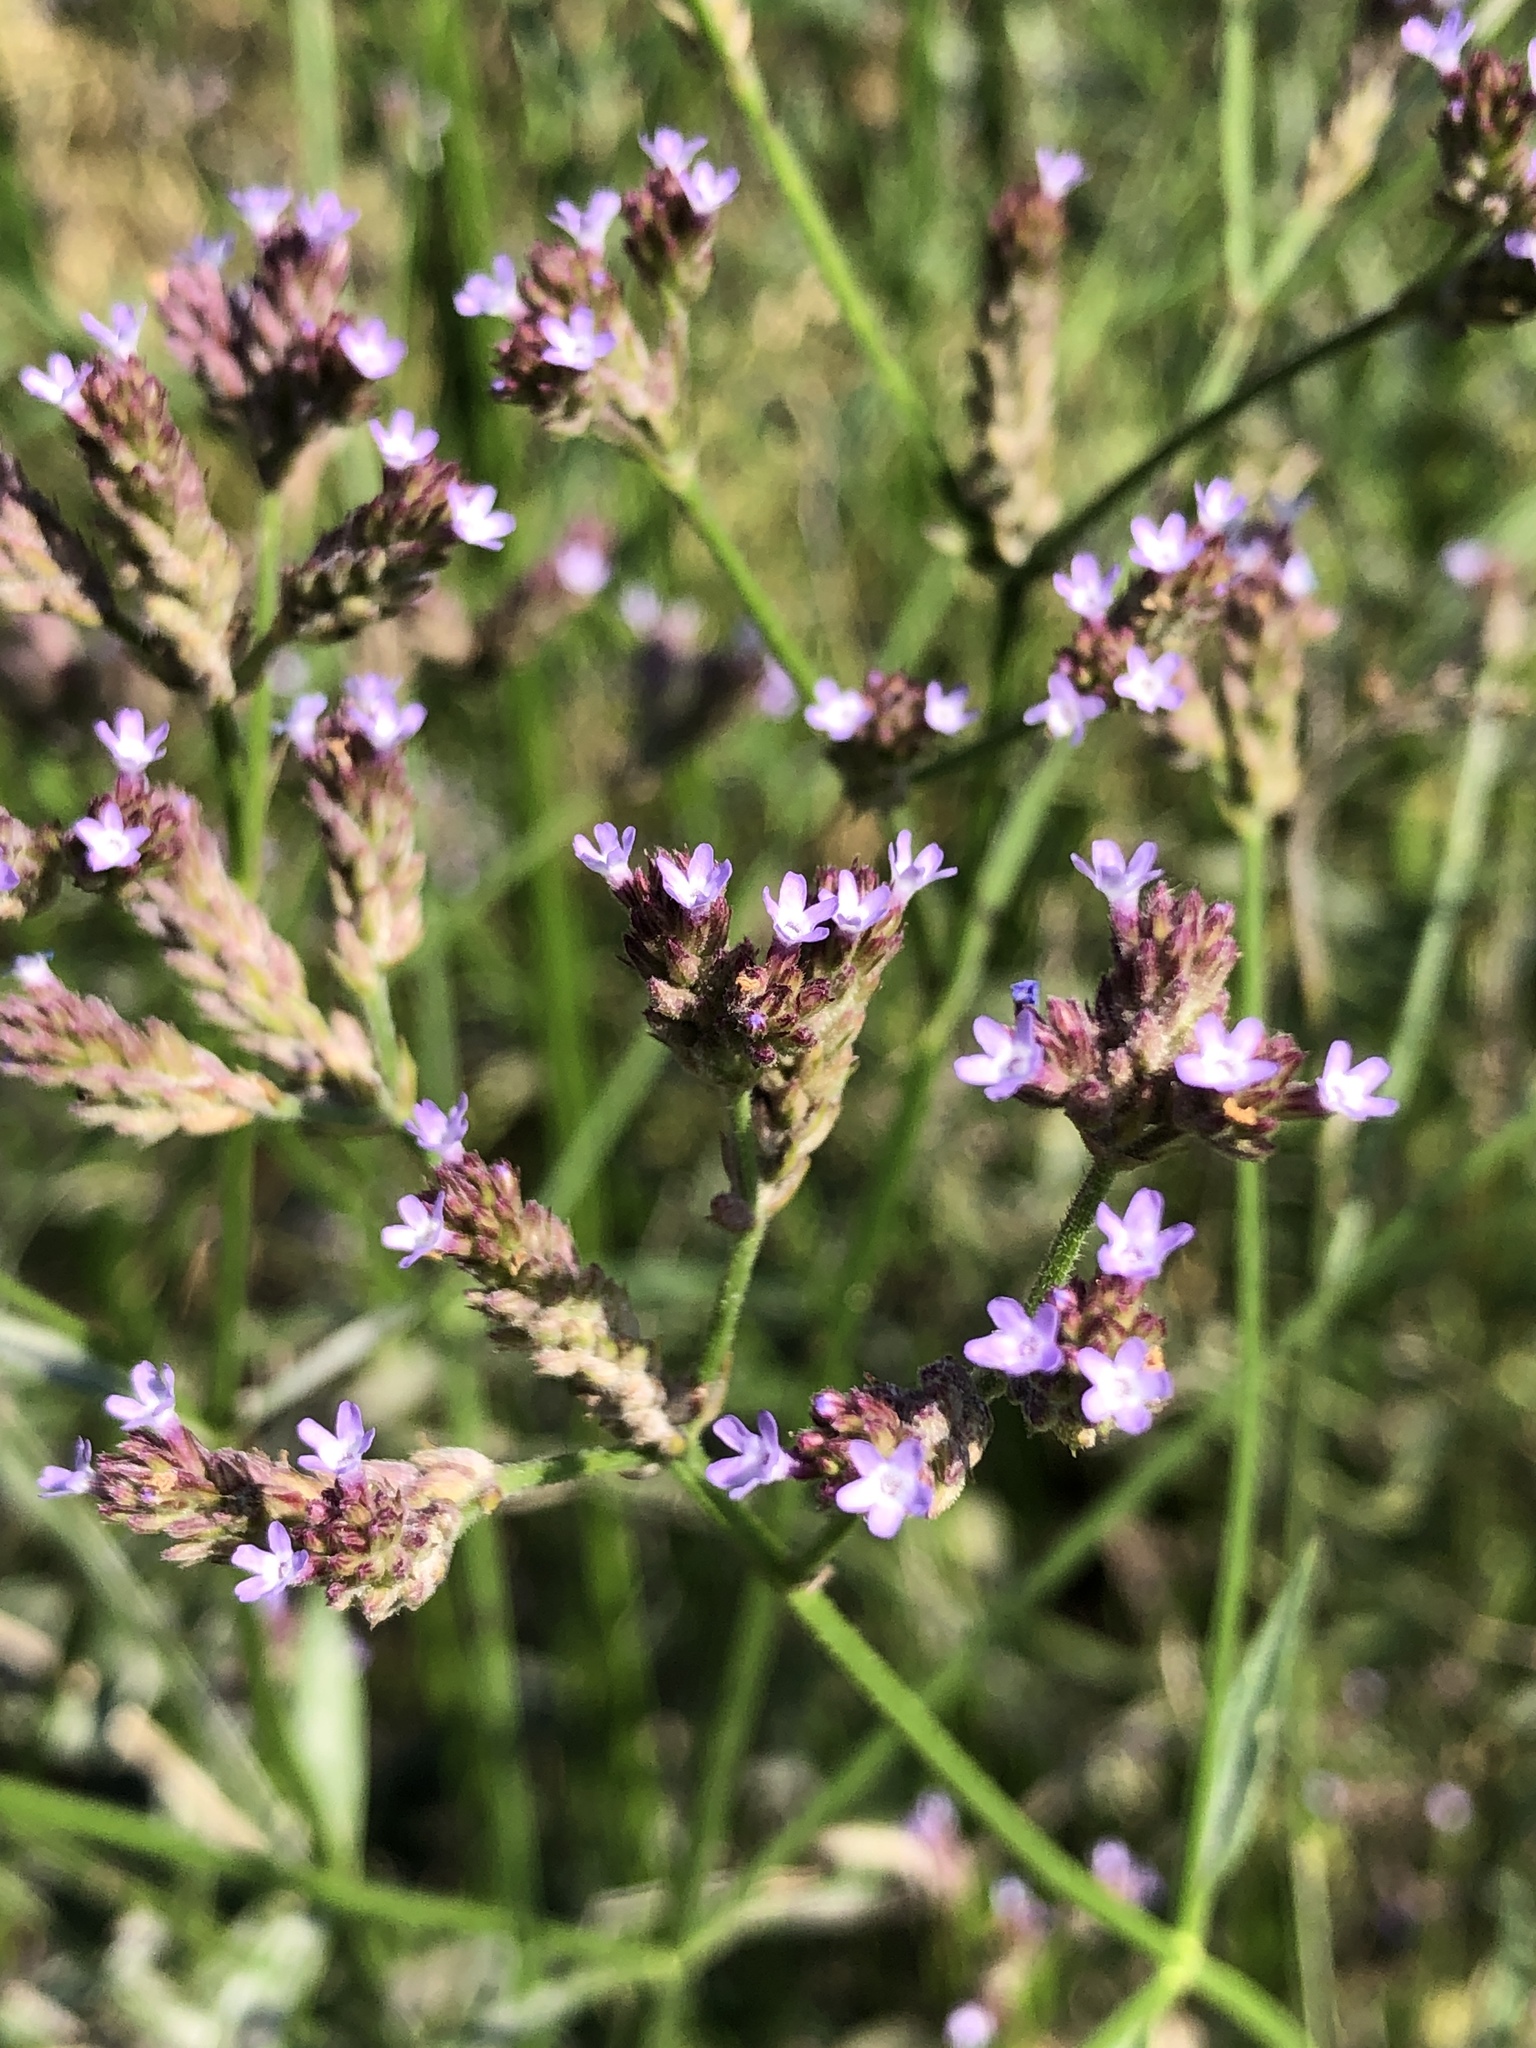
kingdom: Plantae
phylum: Tracheophyta
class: Magnoliopsida
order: Lamiales
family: Verbenaceae
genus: Verbena
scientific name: Verbena brasiliensis
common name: Brazilian vervain
